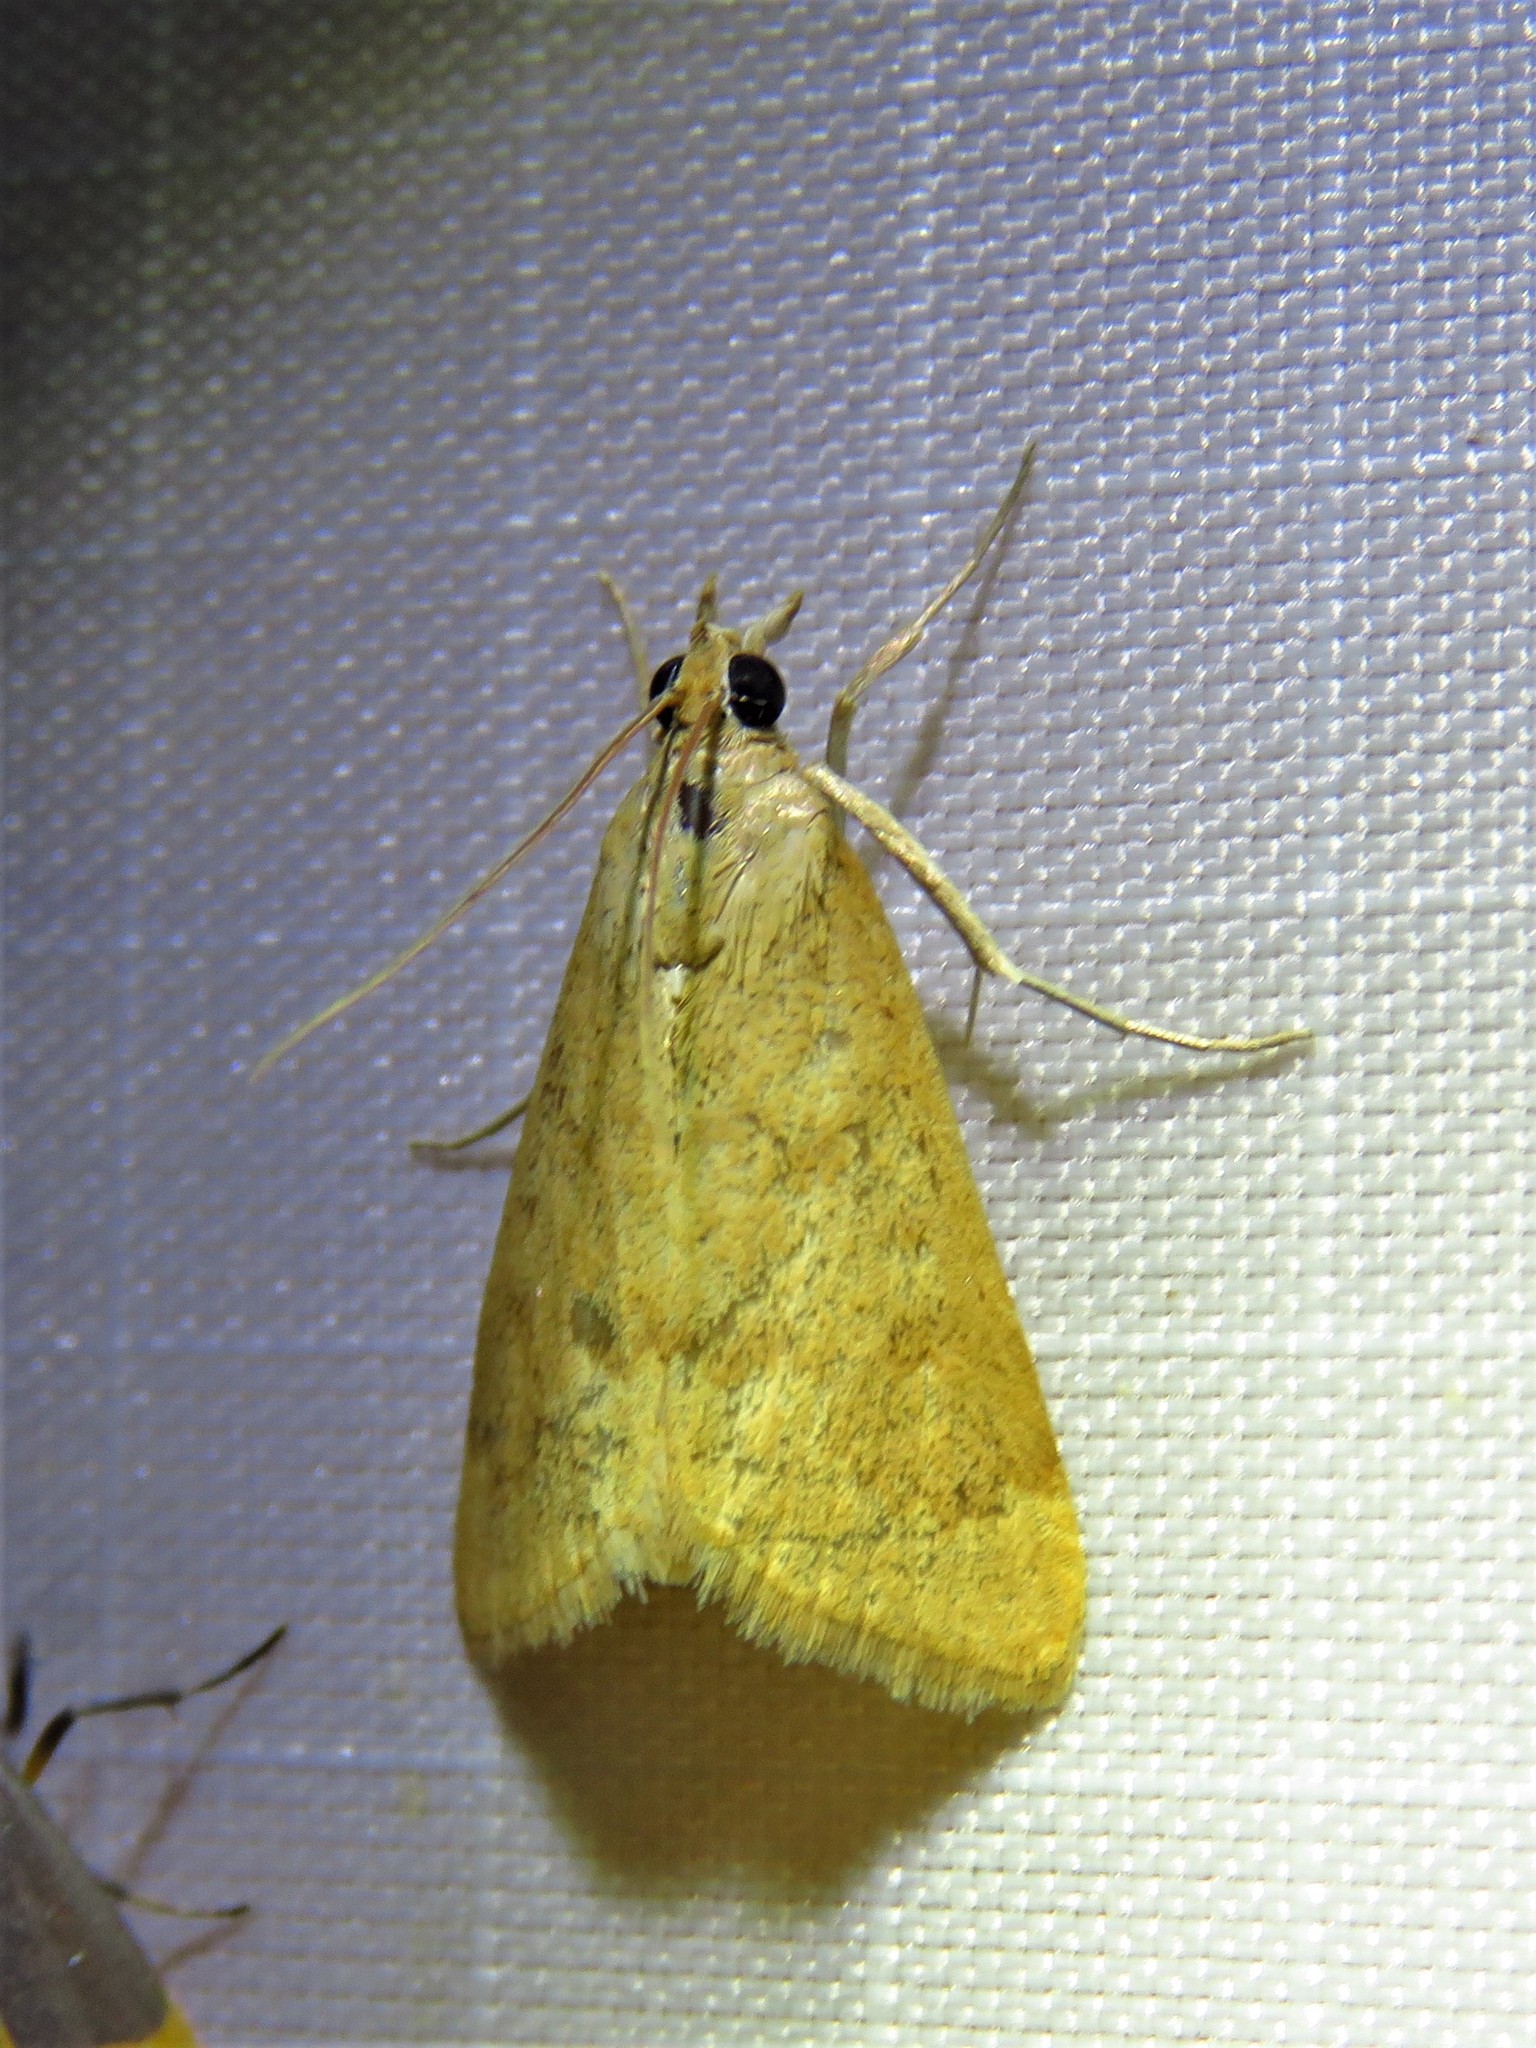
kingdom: Animalia
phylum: Arthropoda
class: Insecta
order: Lepidoptera
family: Crambidae
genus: Achyra
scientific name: Achyra rantalis
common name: Garden webworm
